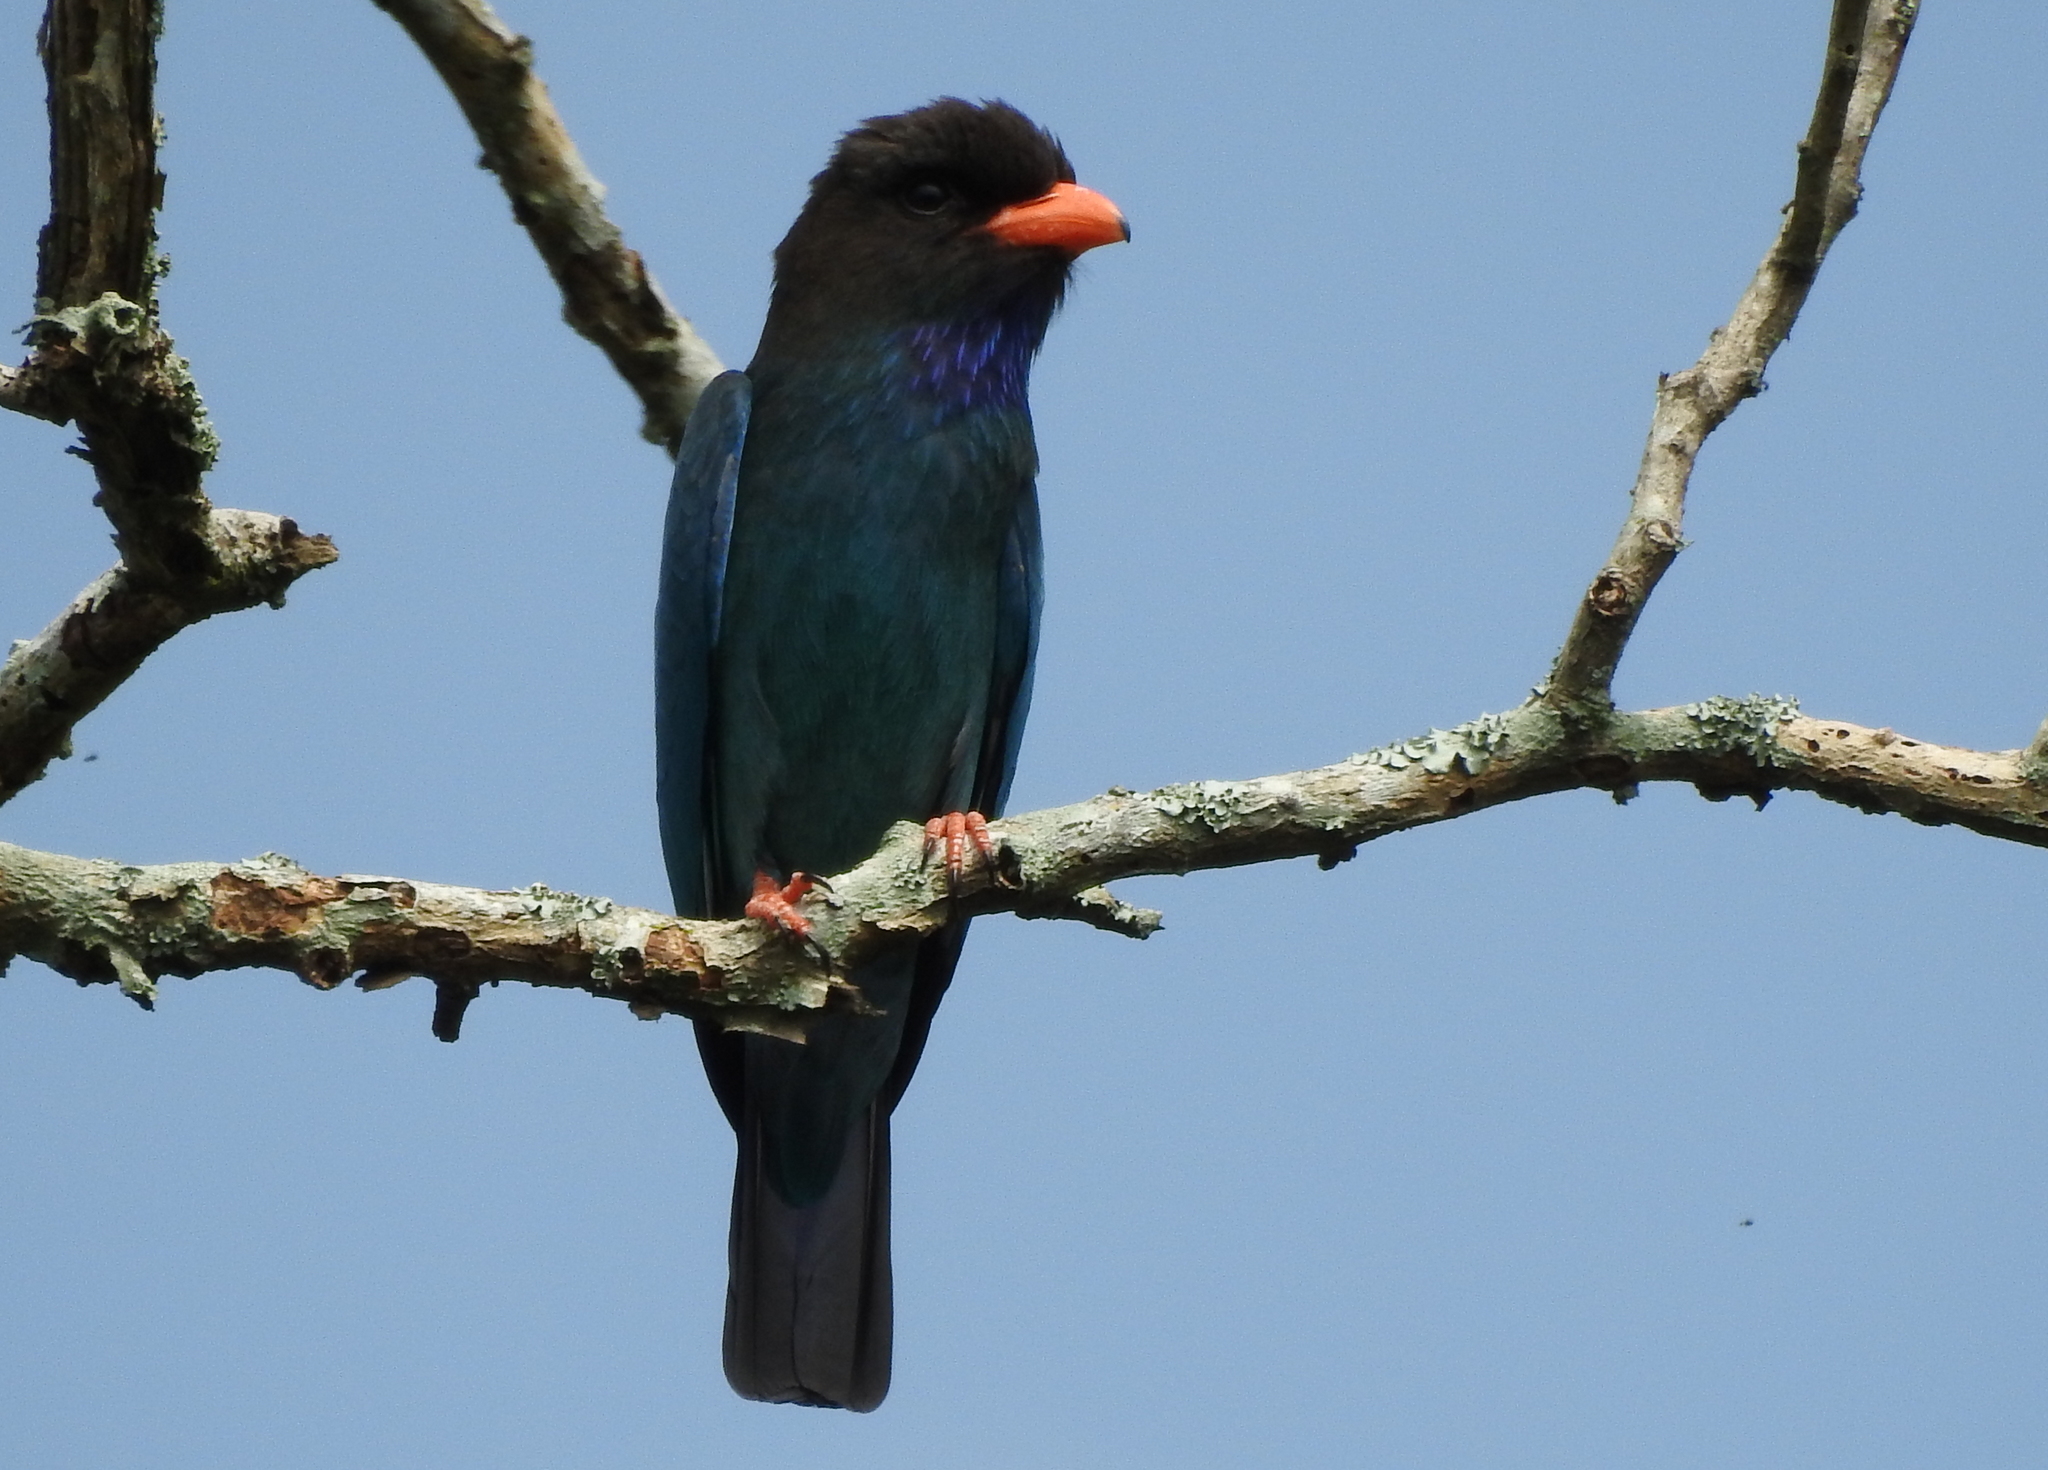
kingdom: Animalia
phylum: Chordata
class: Aves
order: Coraciiformes
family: Coraciidae
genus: Eurystomus
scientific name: Eurystomus orientalis
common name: Oriental dollarbird
